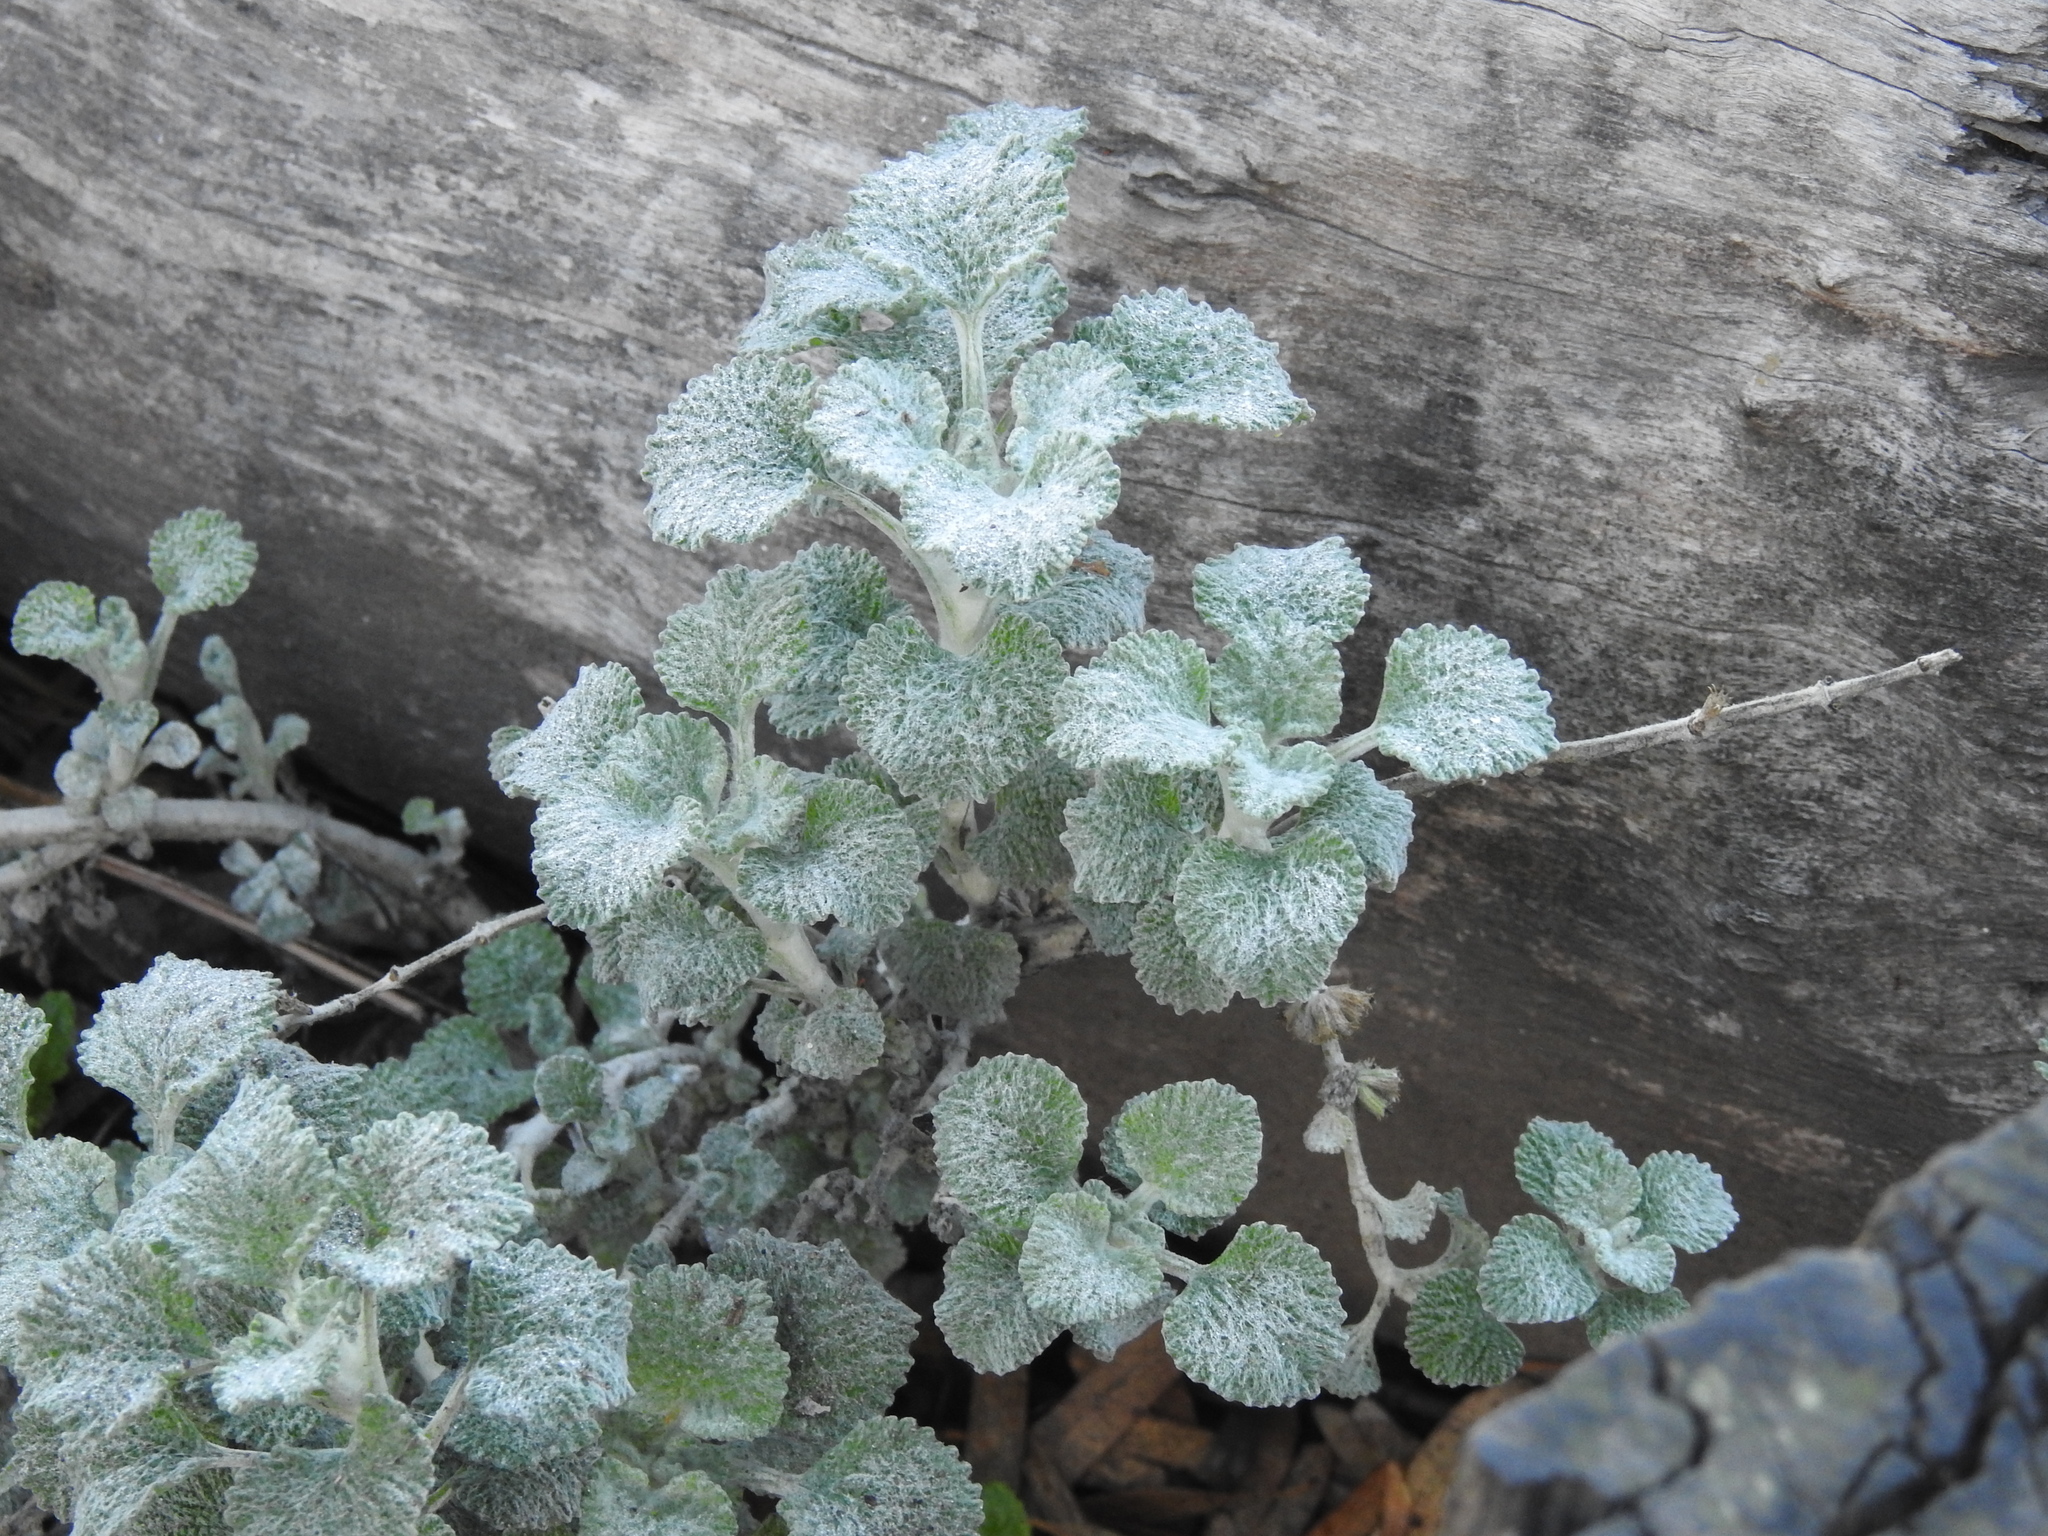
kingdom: Plantae
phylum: Tracheophyta
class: Magnoliopsida
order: Lamiales
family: Lamiaceae
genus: Marrubium
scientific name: Marrubium vulgare
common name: Horehound
